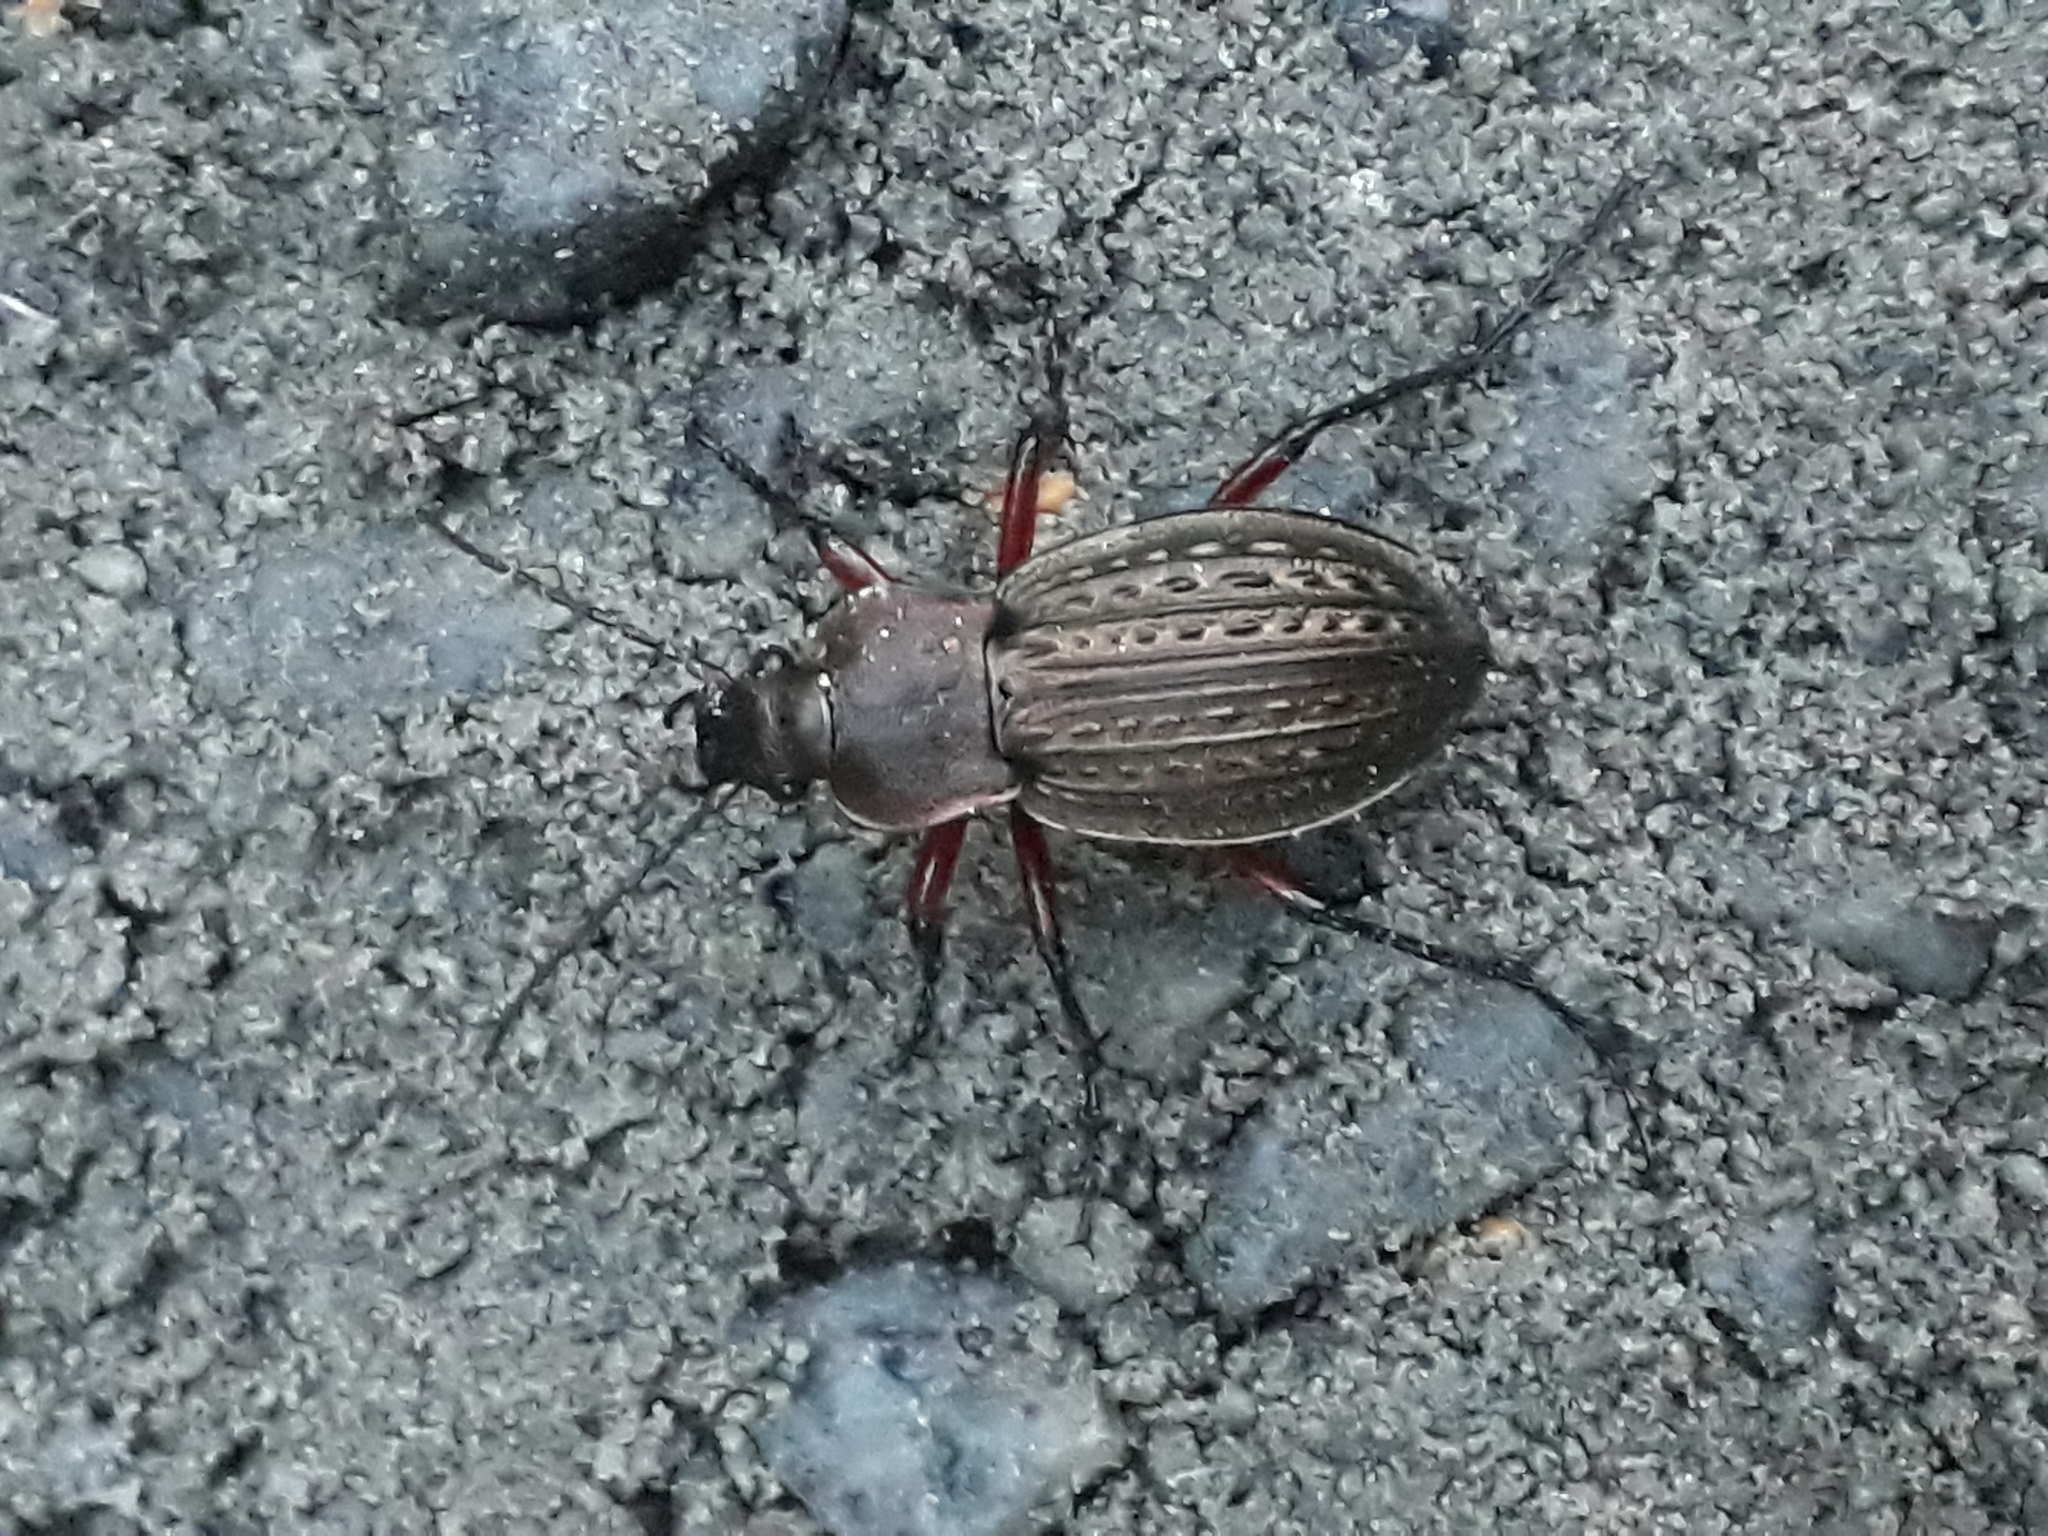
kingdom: Animalia
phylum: Arthropoda
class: Insecta
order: Coleoptera
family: Carabidae
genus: Carabus
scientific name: Carabus cancellatus
